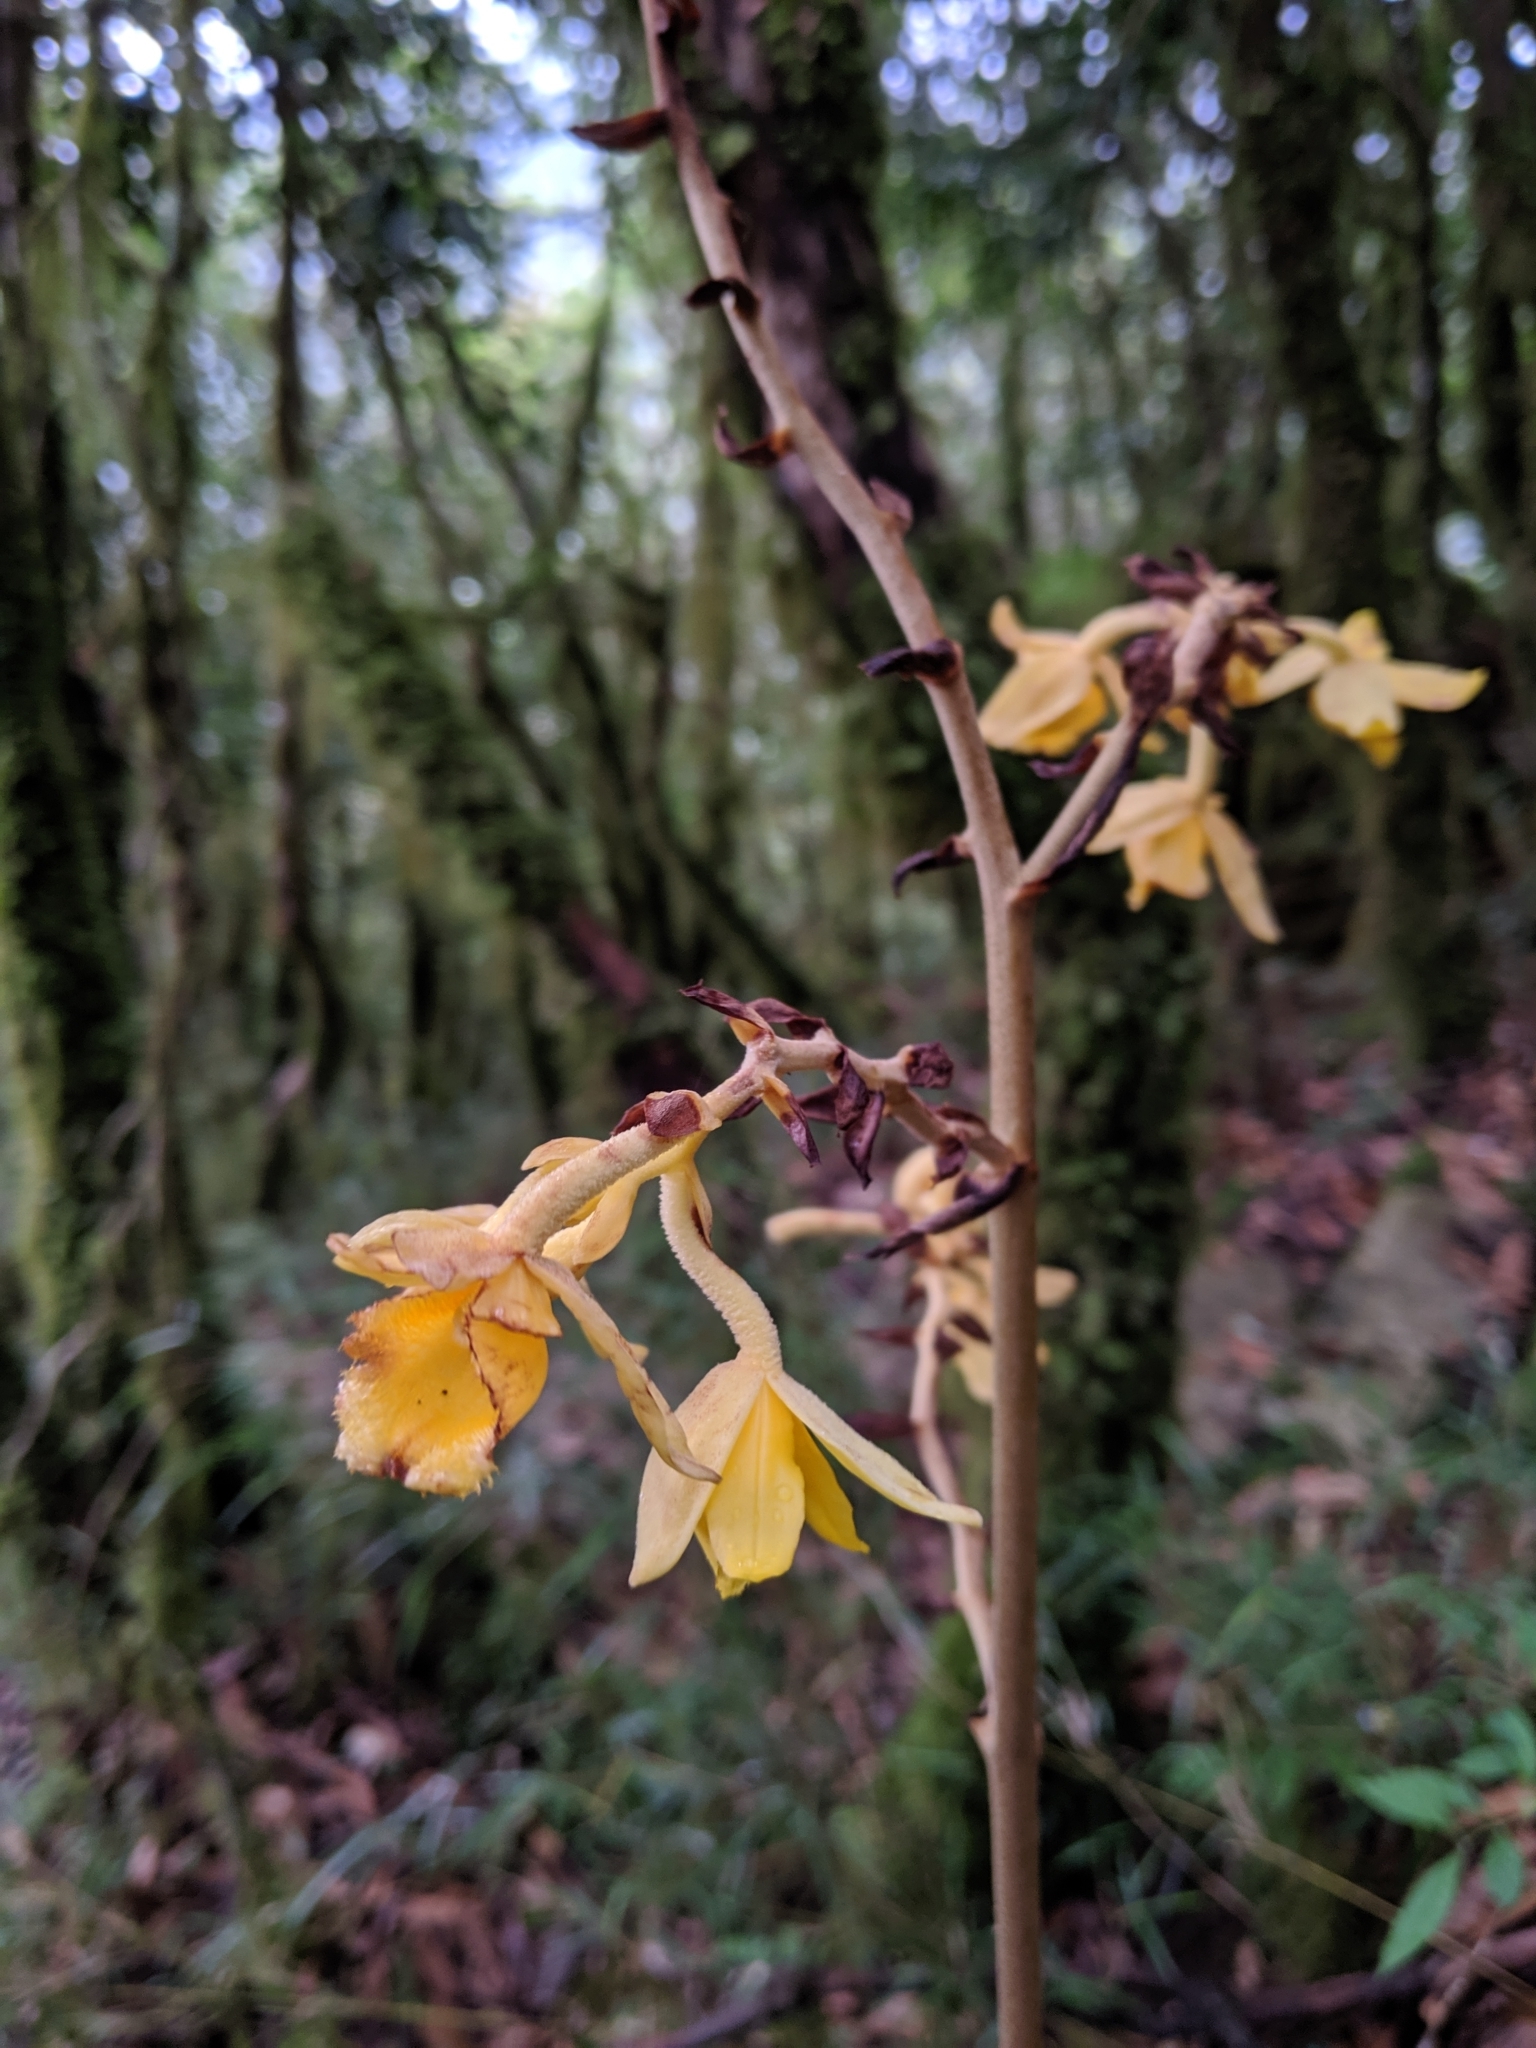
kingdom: Plantae
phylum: Tracheophyta
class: Liliopsida
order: Asparagales
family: Orchidaceae
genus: Cyrtosia
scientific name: Cyrtosia falconeri
